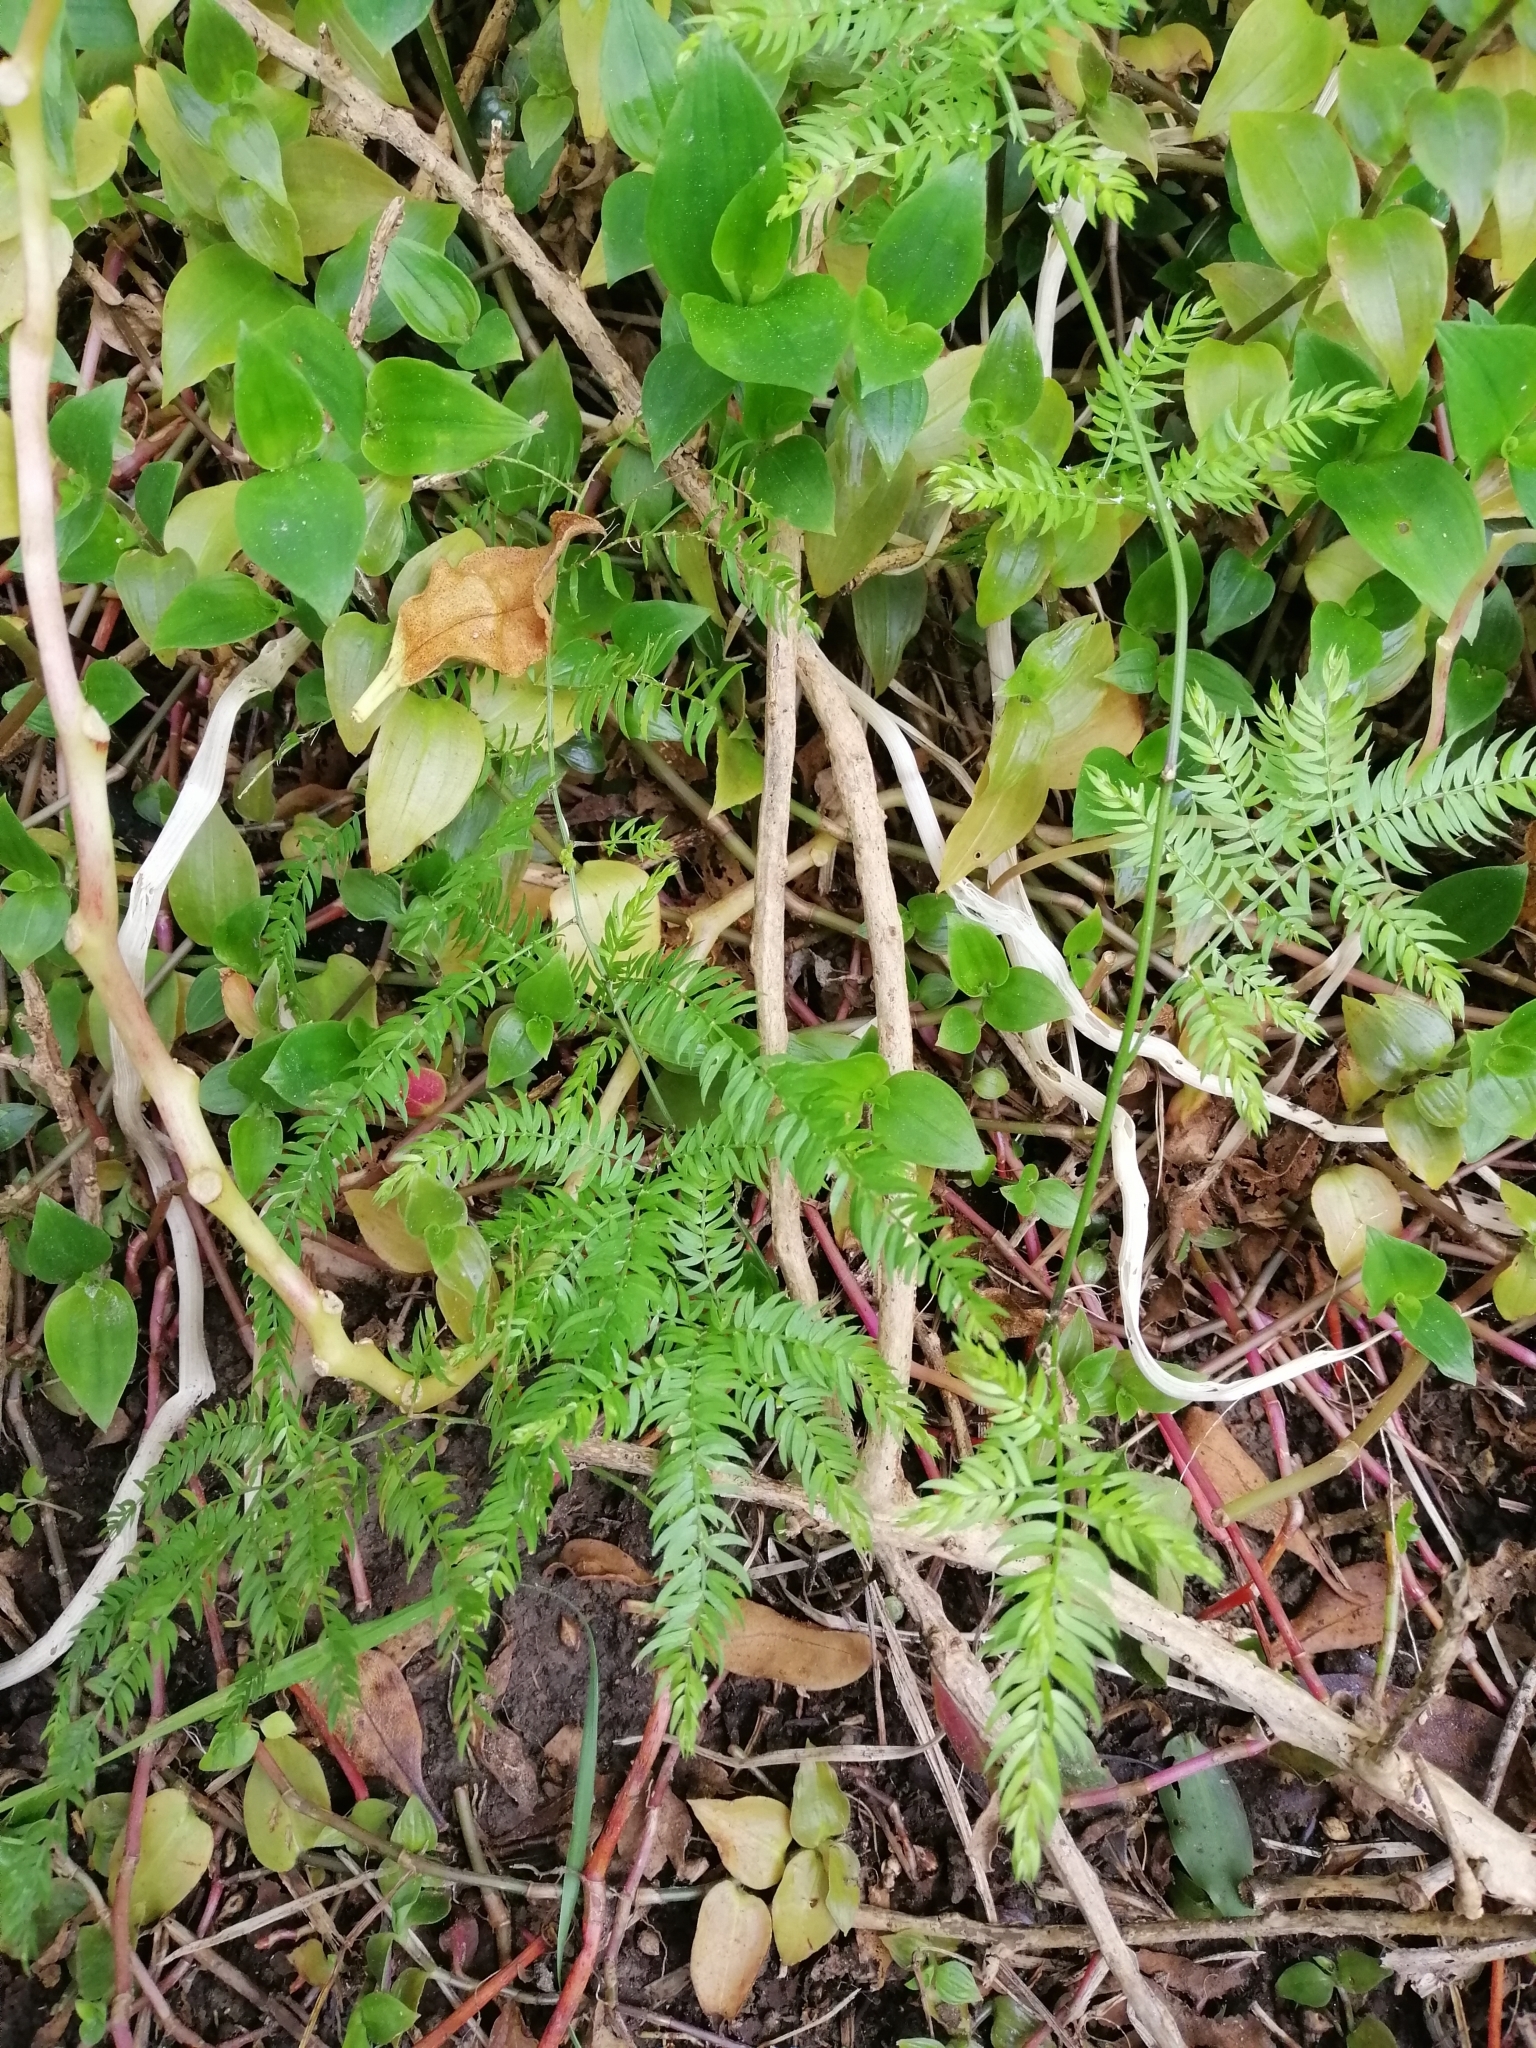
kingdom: Plantae
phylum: Tracheophyta
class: Liliopsida
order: Asparagales
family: Asparagaceae
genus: Asparagus
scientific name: Asparagus scandens
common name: Asparagus-fern
